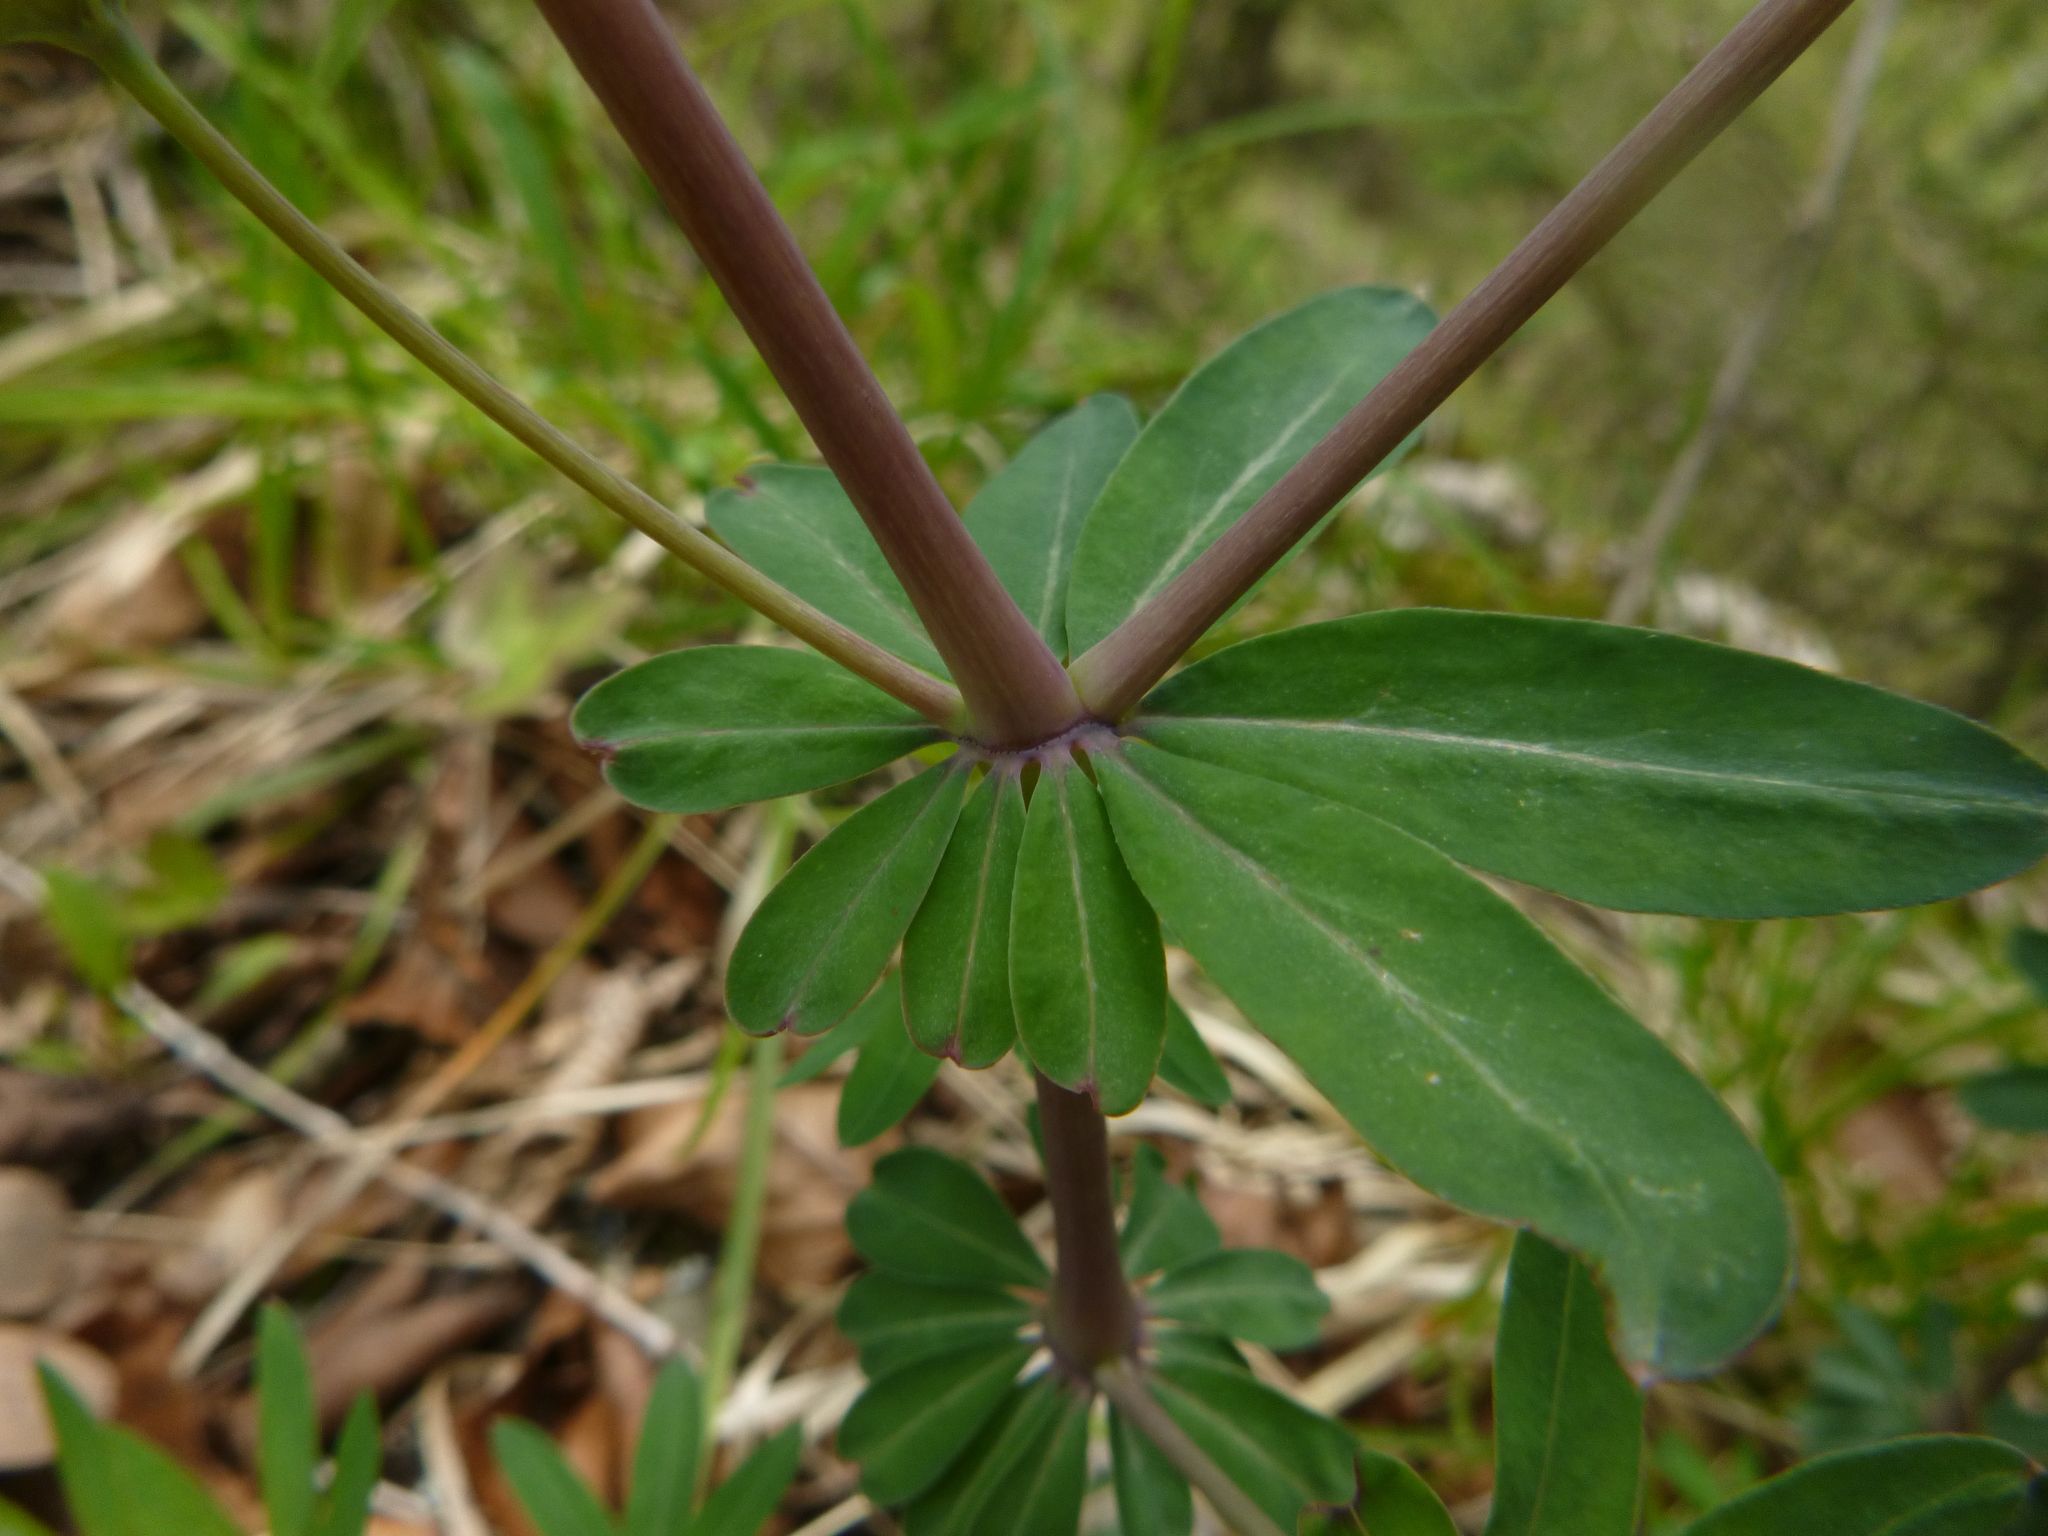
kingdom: Plantae
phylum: Tracheophyta
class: Magnoliopsida
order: Gentianales
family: Rubiaceae
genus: Galium
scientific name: Galium sylvaticum
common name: Wood bedstraw
